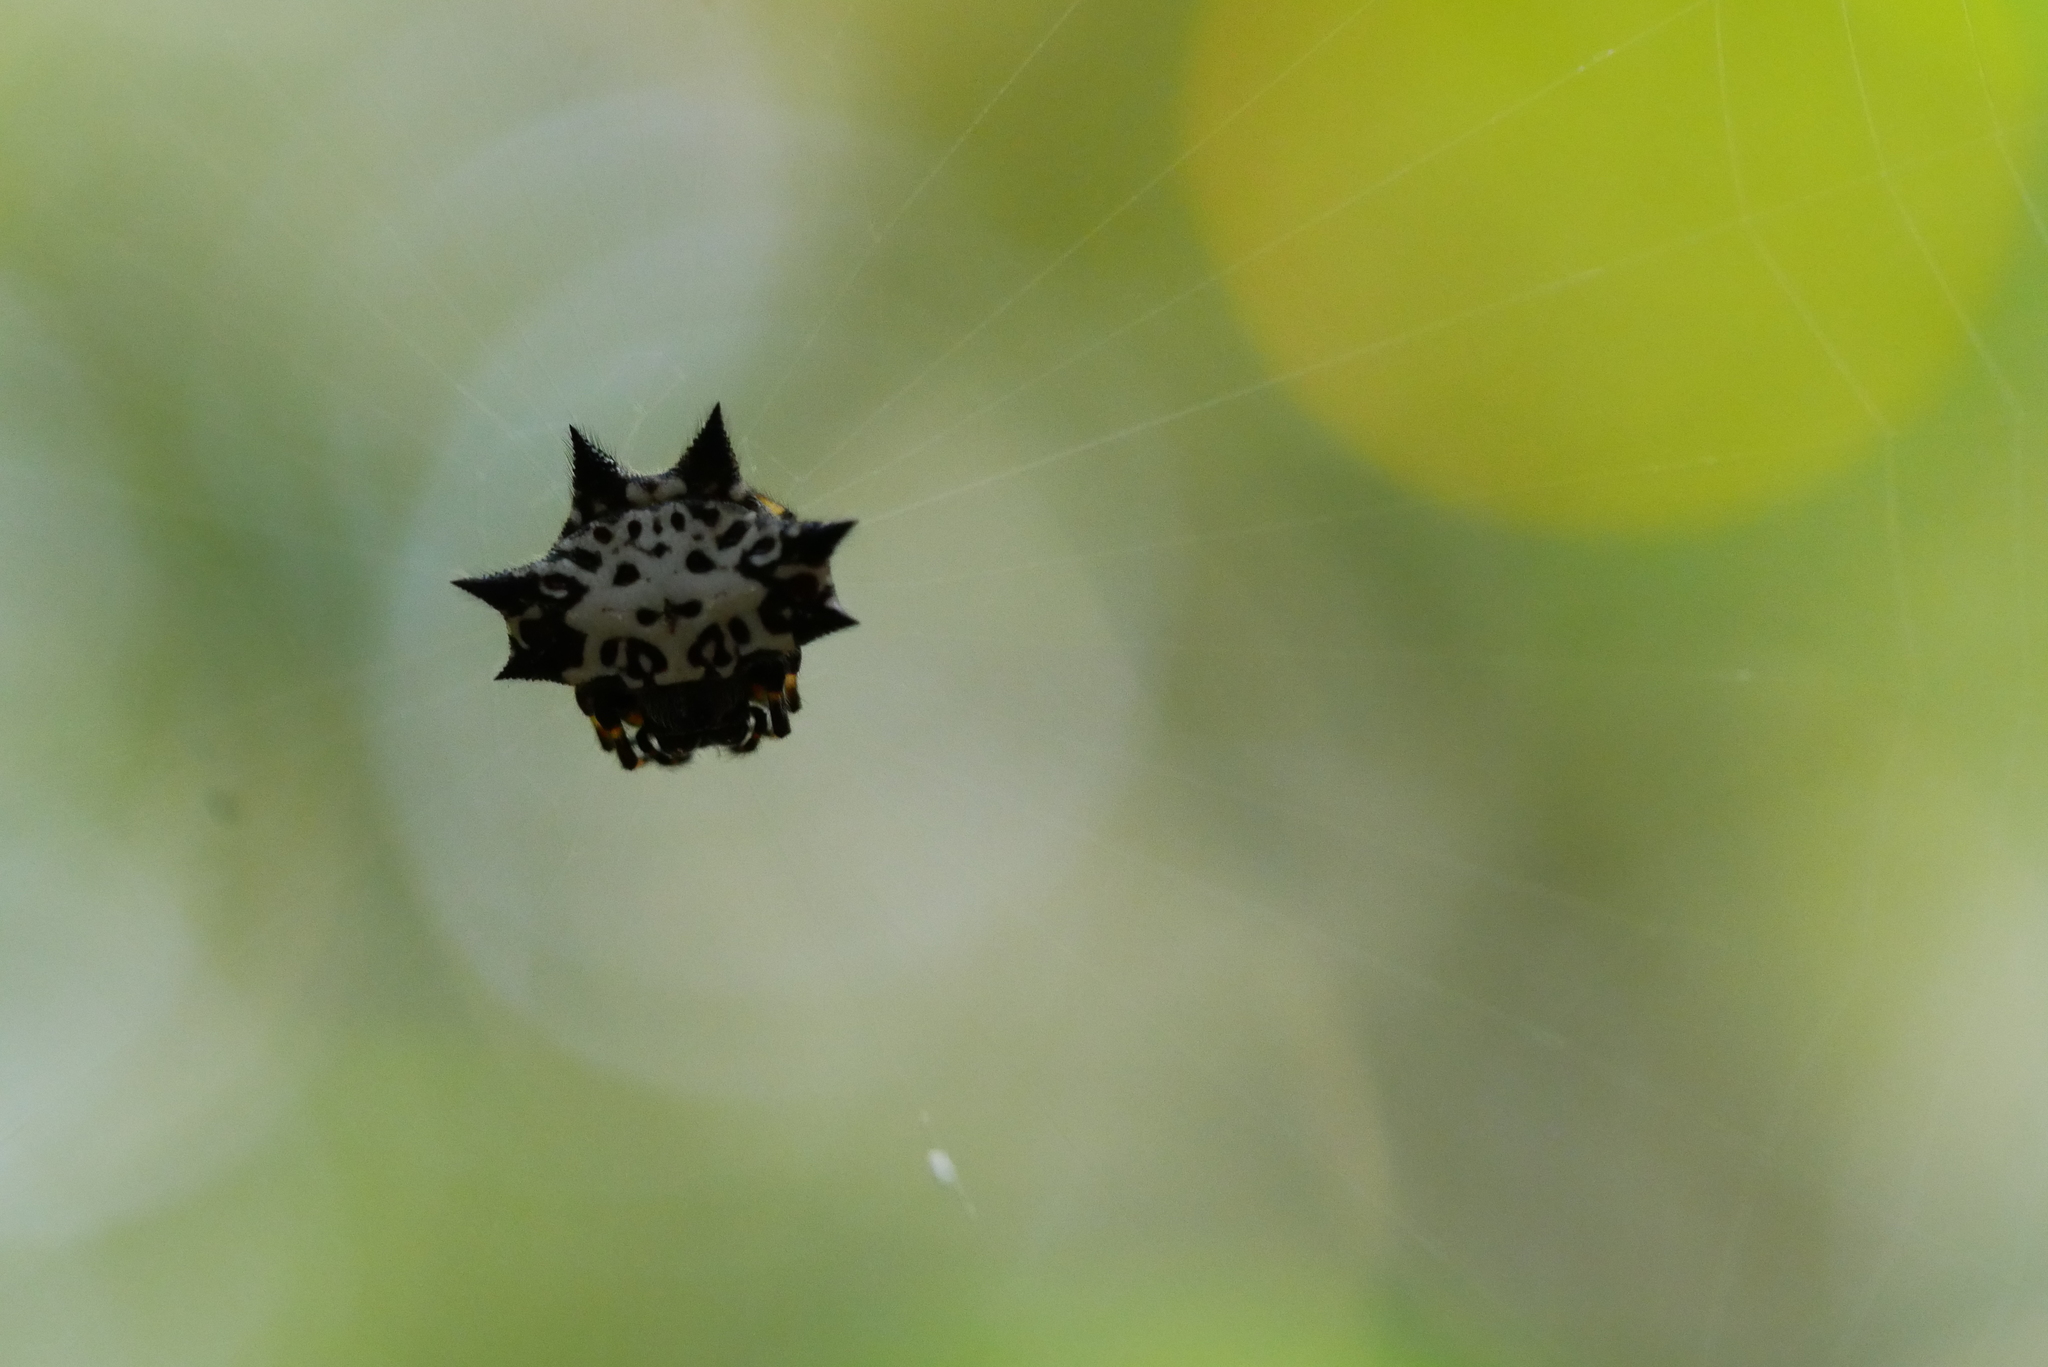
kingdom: Animalia
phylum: Arthropoda
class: Arachnida
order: Araneae
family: Araneidae
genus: Gasteracantha
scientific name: Gasteracantha kuhli
